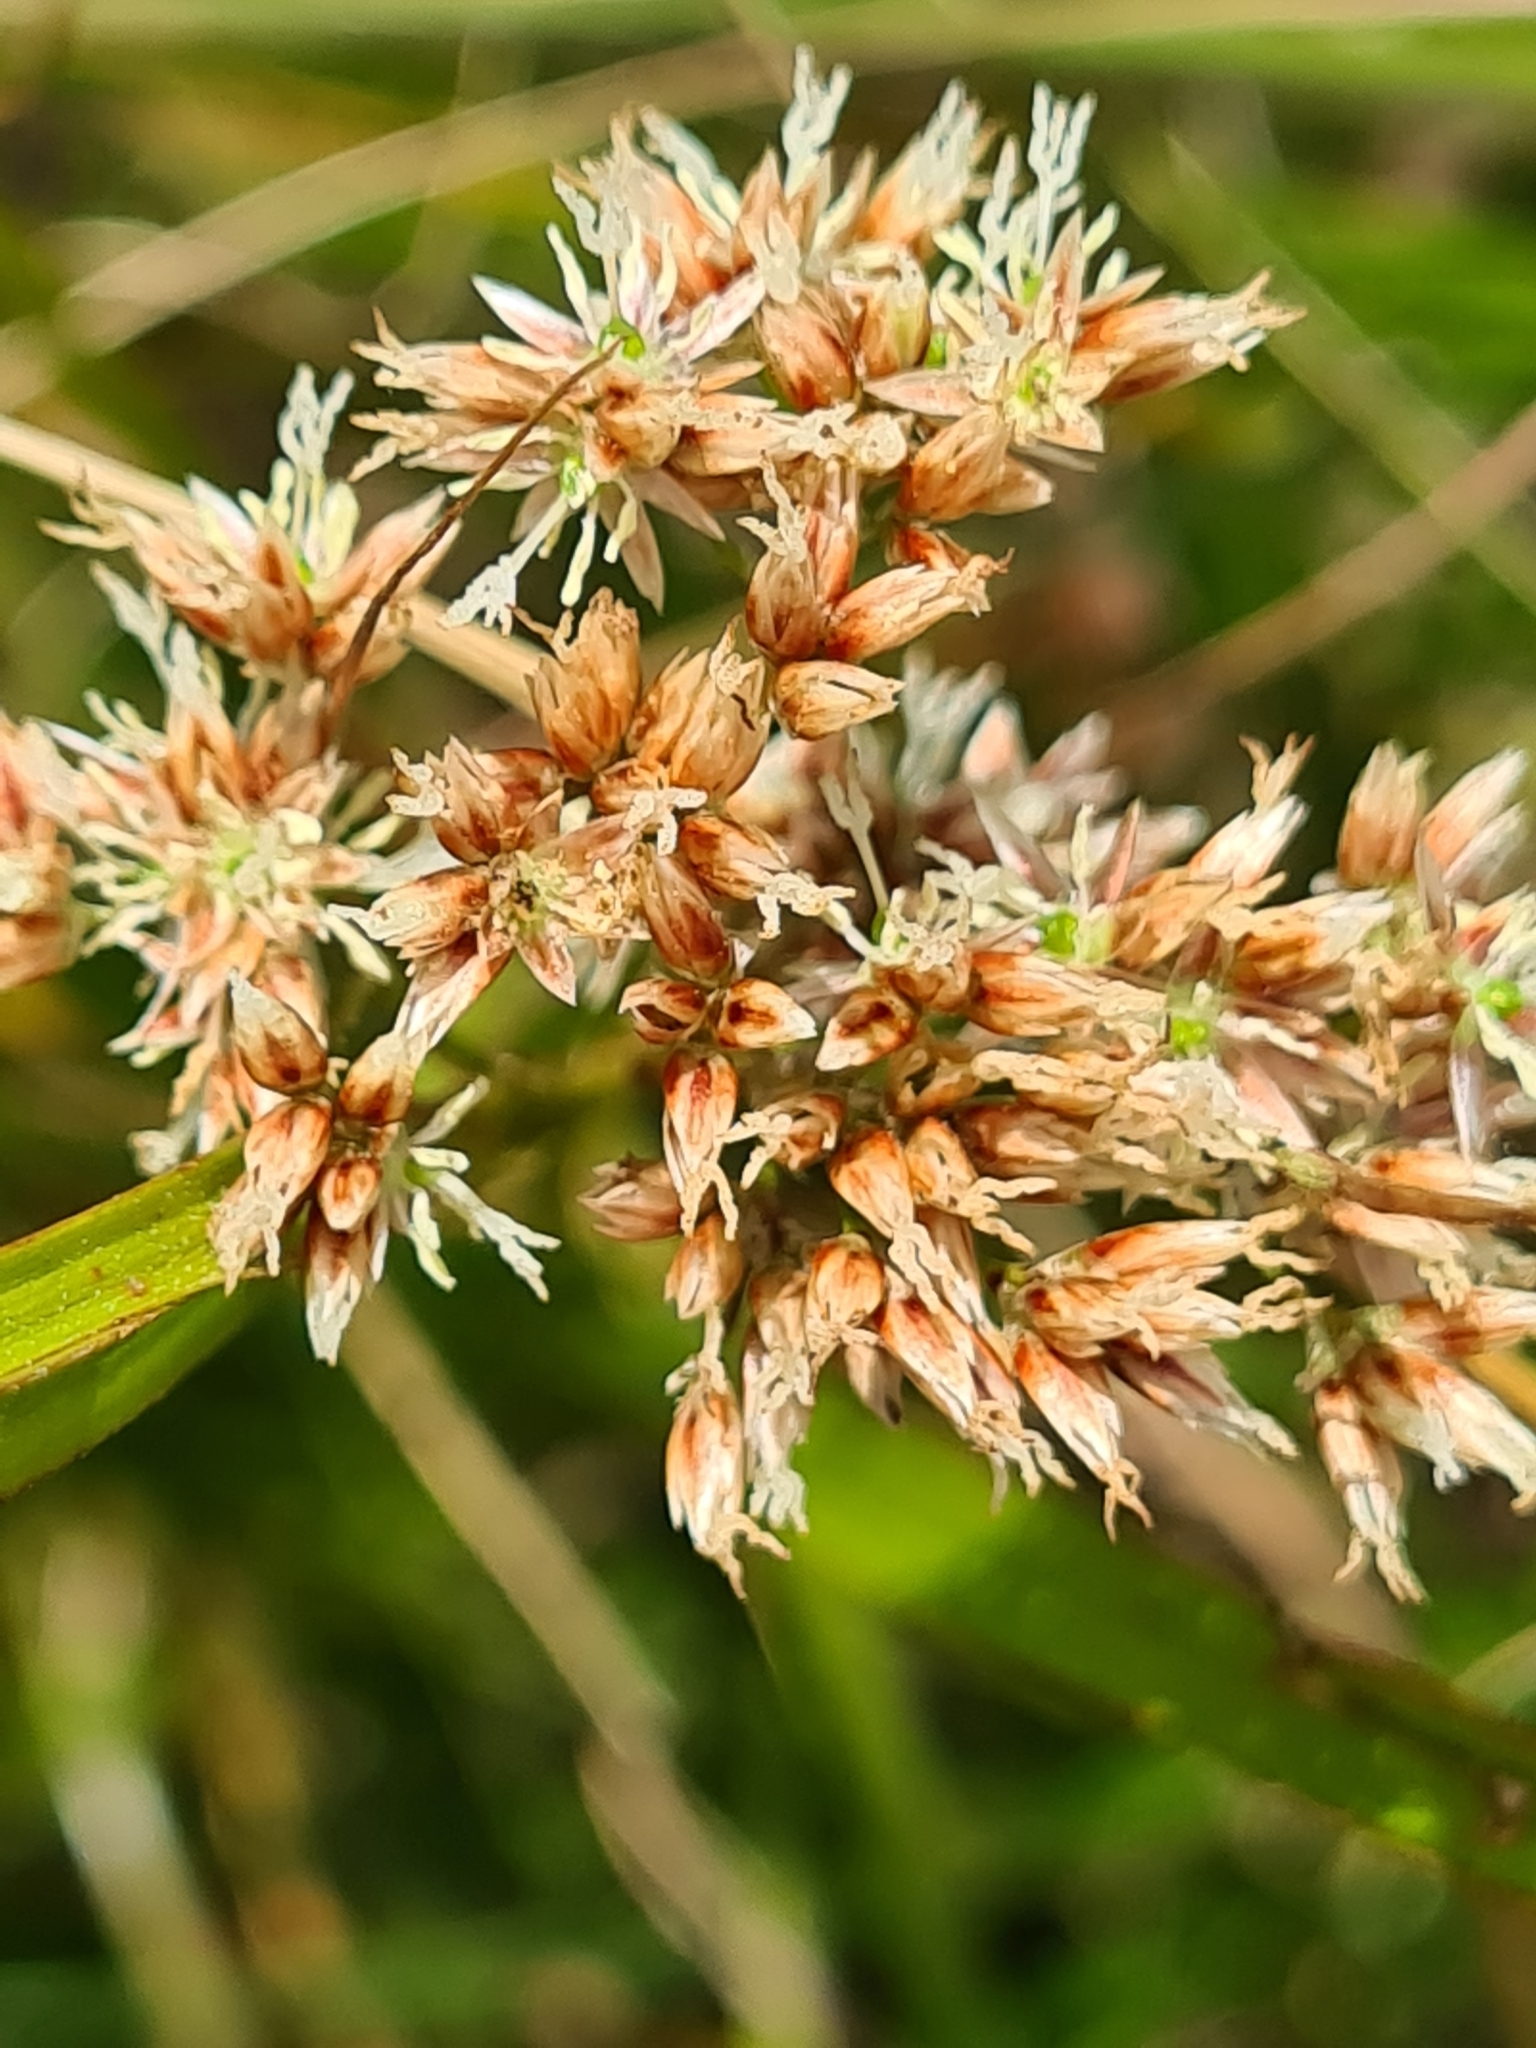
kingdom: Plantae
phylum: Tracheophyta
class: Liliopsida
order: Poales
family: Juncaceae
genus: Luzula
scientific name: Luzula luzuloides
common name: White wood-rush
